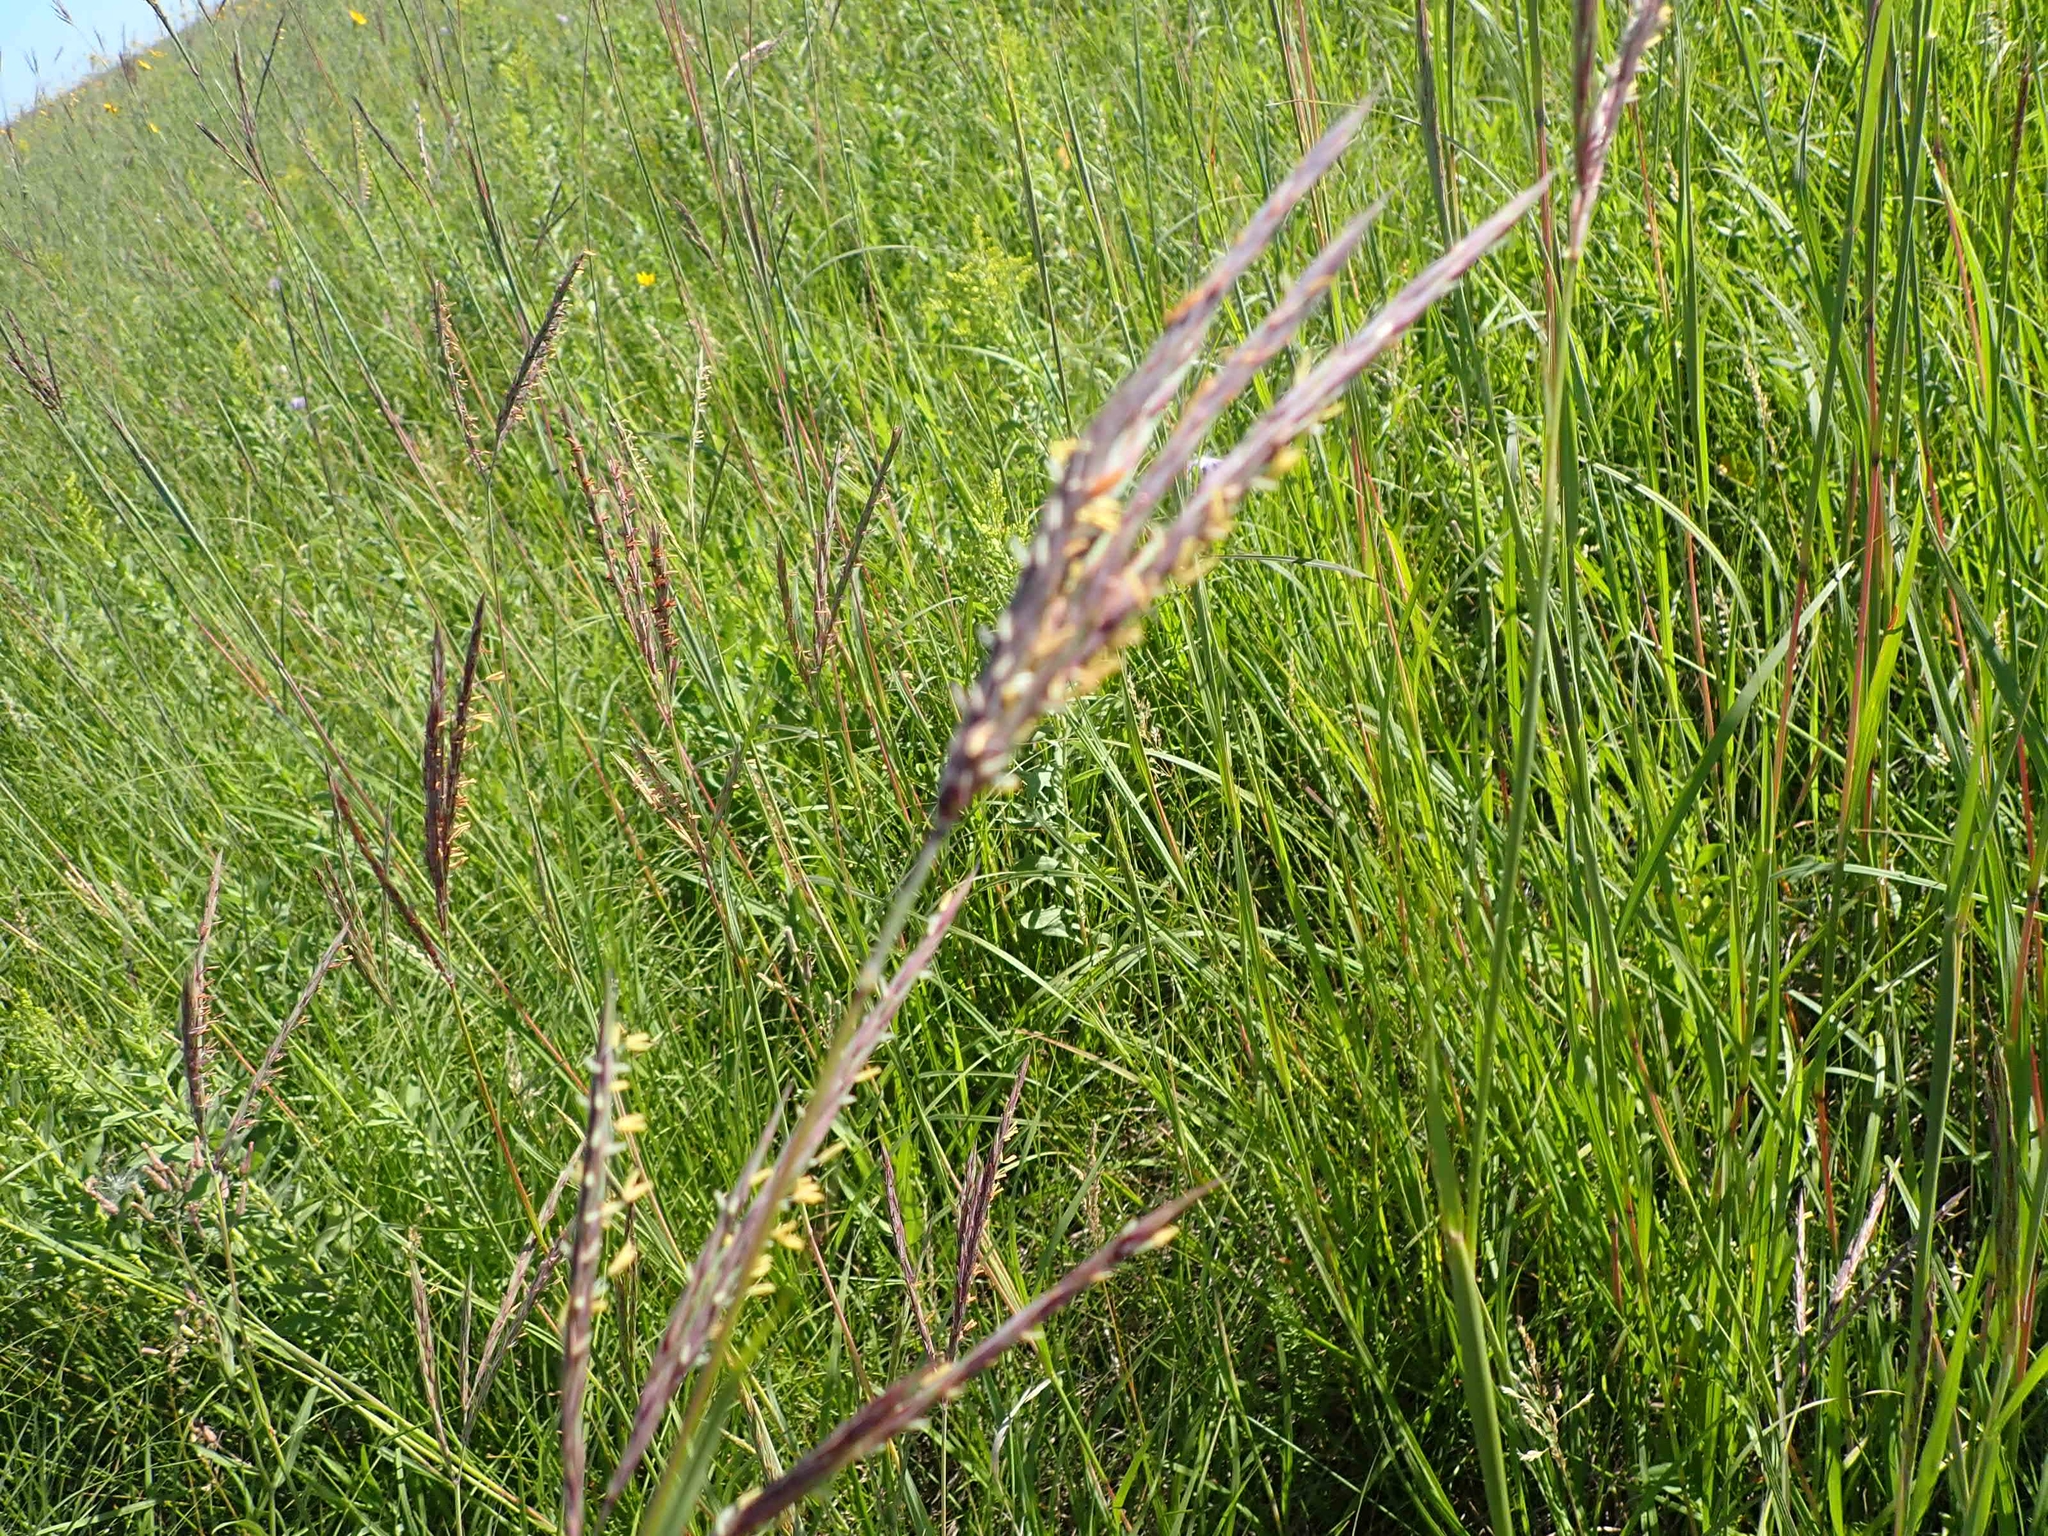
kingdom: Plantae
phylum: Tracheophyta
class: Liliopsida
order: Poales
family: Poaceae
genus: Andropogon
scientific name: Andropogon gerardi
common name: Big bluestem
